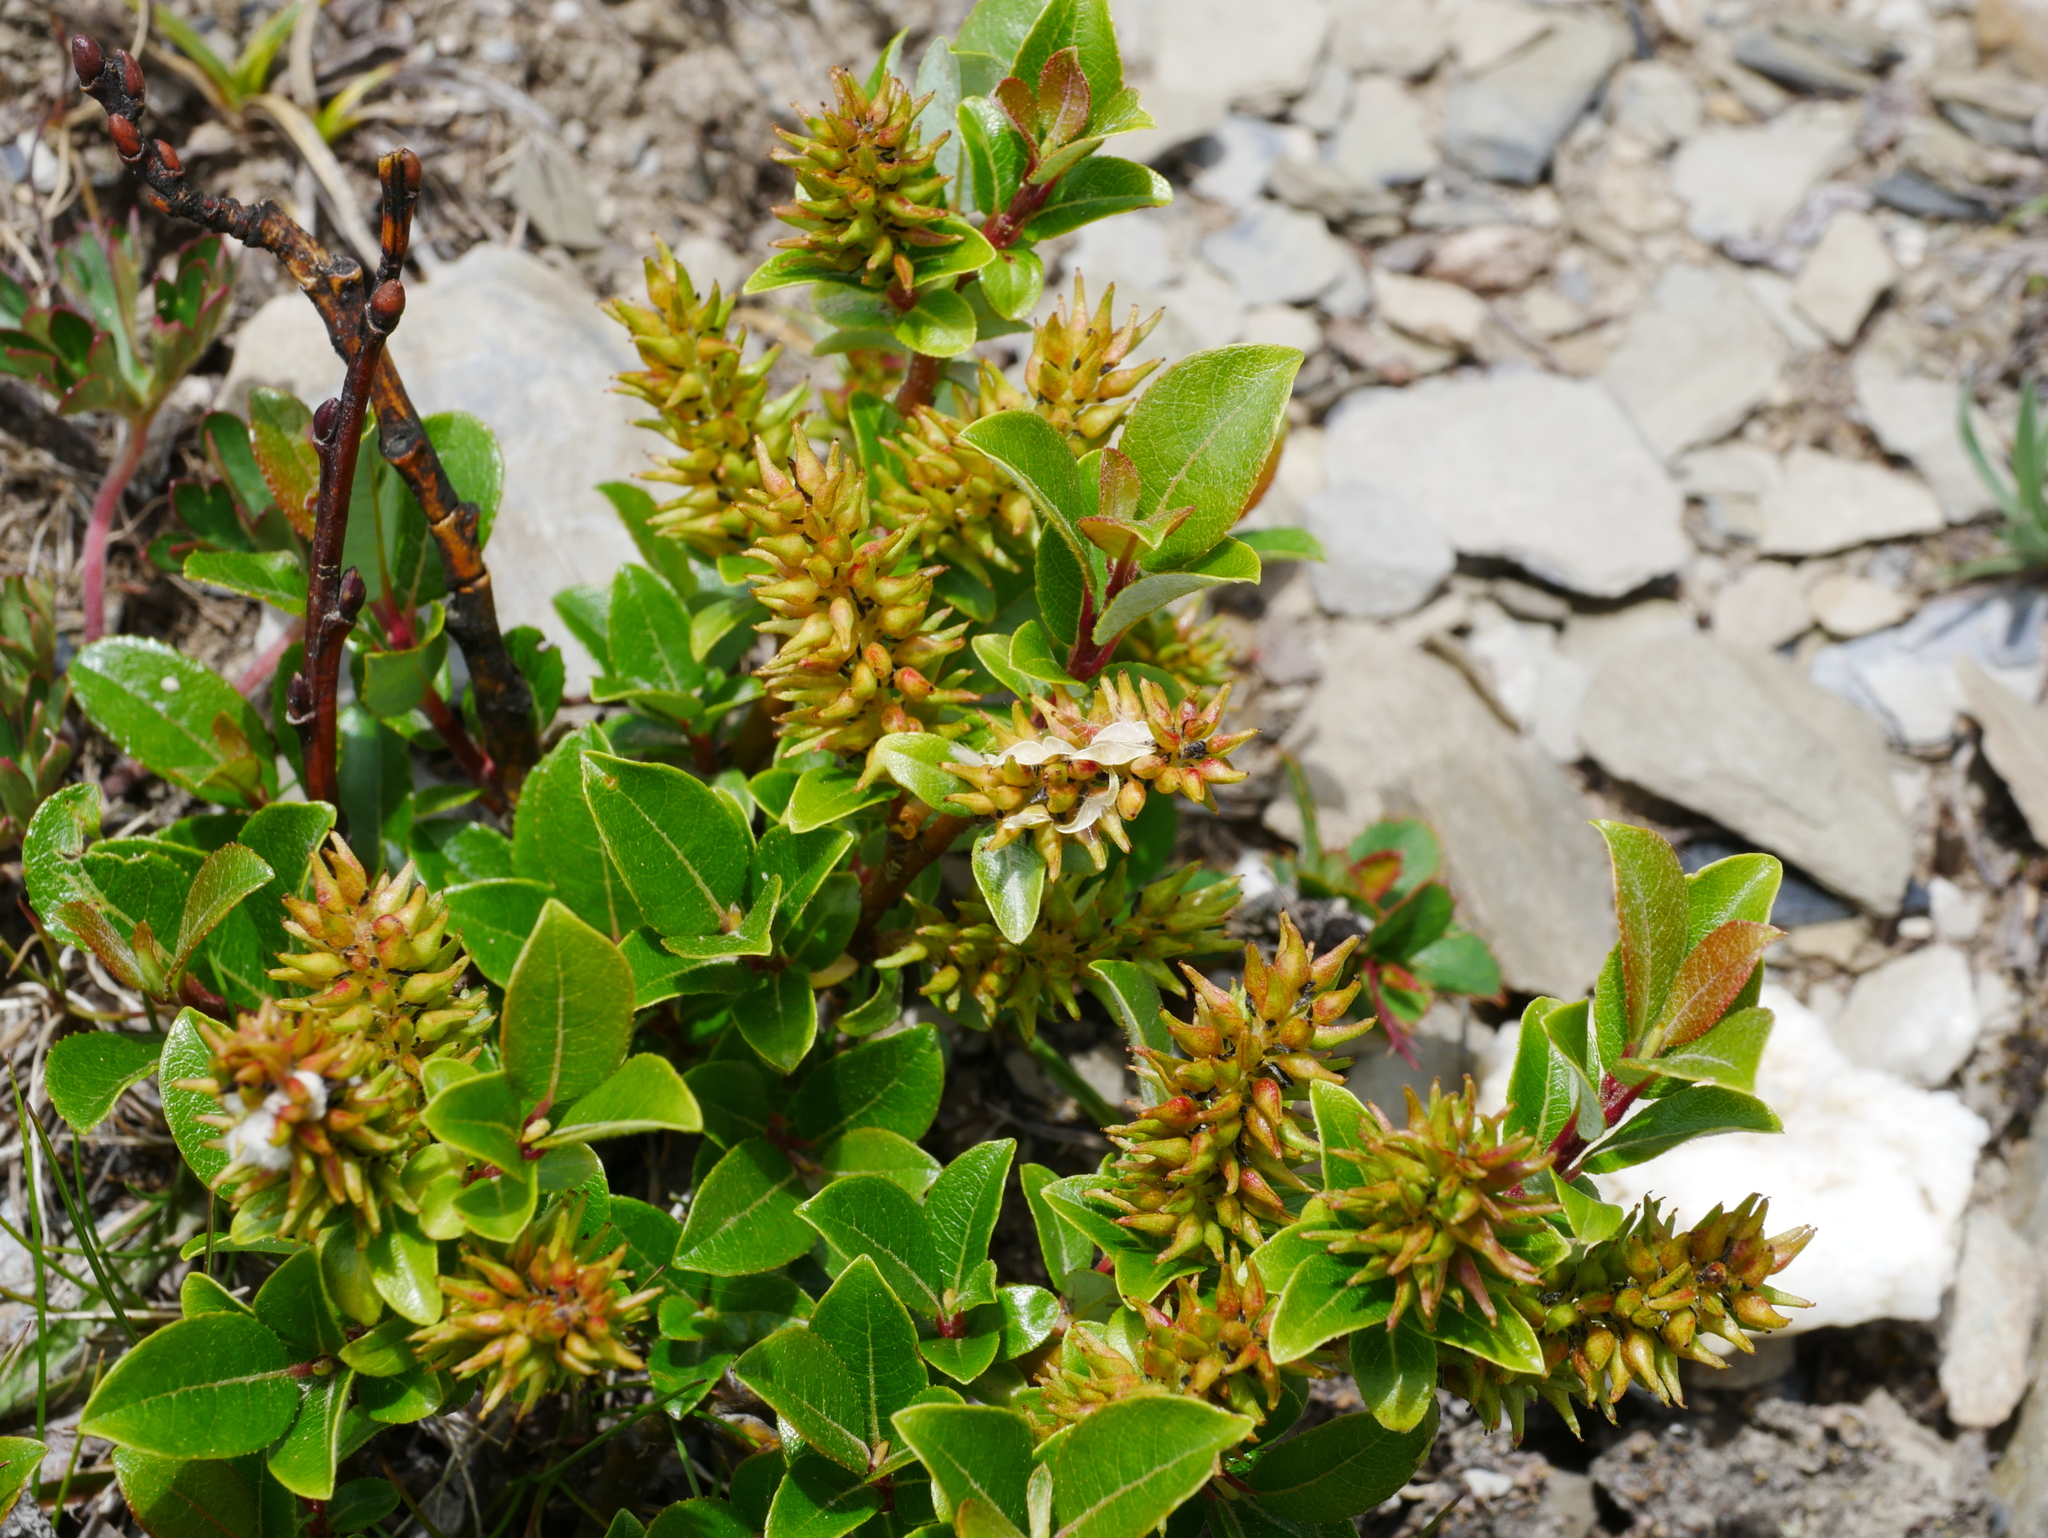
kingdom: Plantae
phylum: Tracheophyta
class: Magnoliopsida
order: Malpighiales
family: Salicaceae
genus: Salix
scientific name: Salix taiwanalpina
